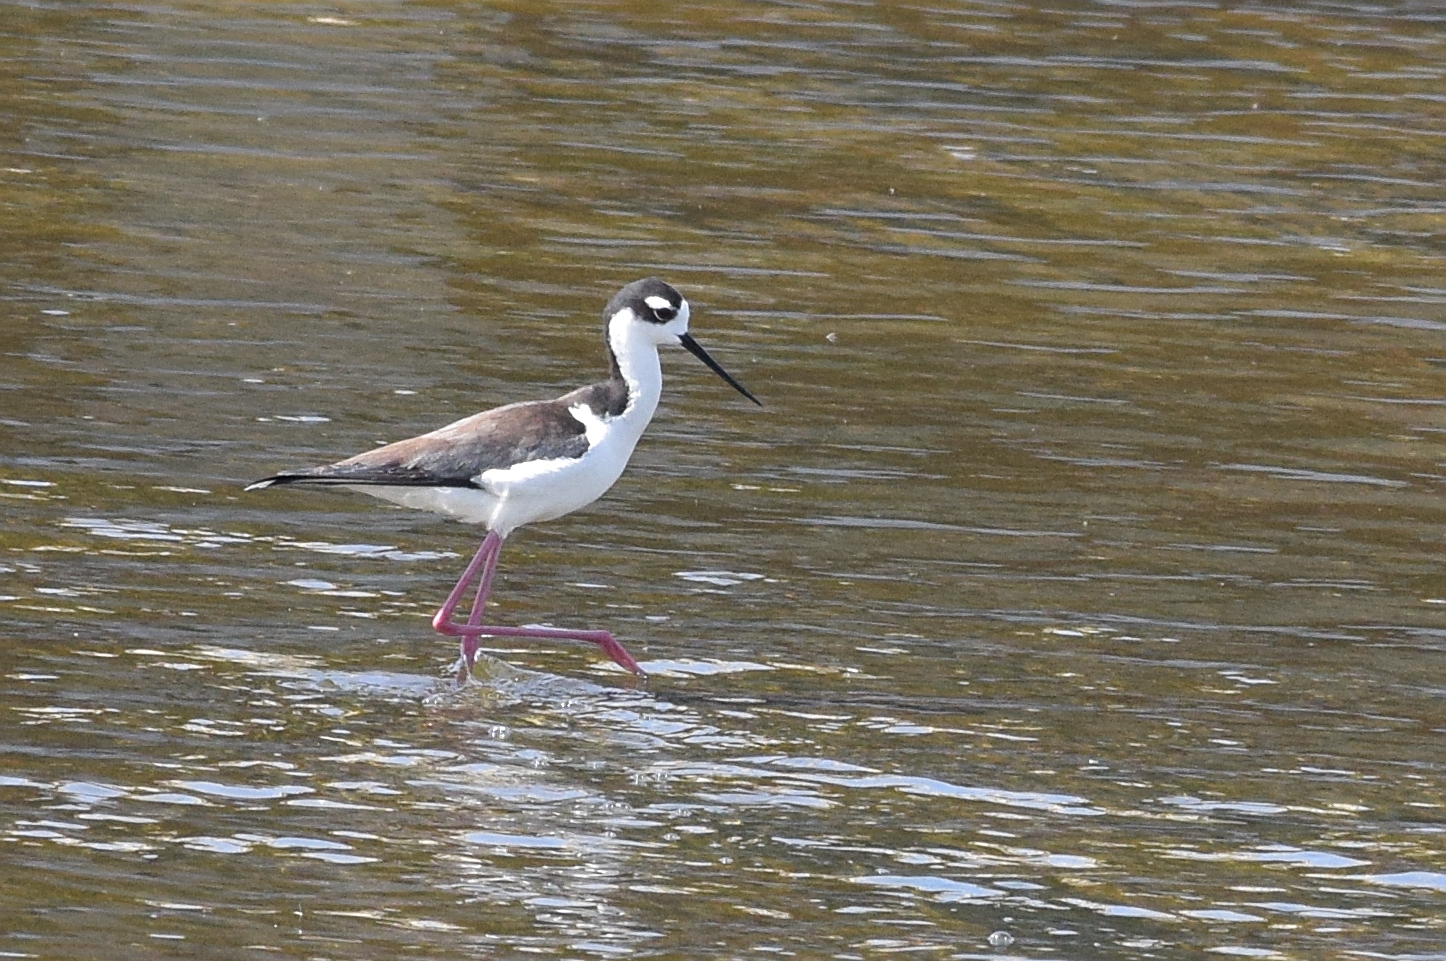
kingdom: Animalia
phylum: Chordata
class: Aves
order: Charadriiformes
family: Recurvirostridae
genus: Himantopus
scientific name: Himantopus mexicanus
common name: Black-necked stilt
